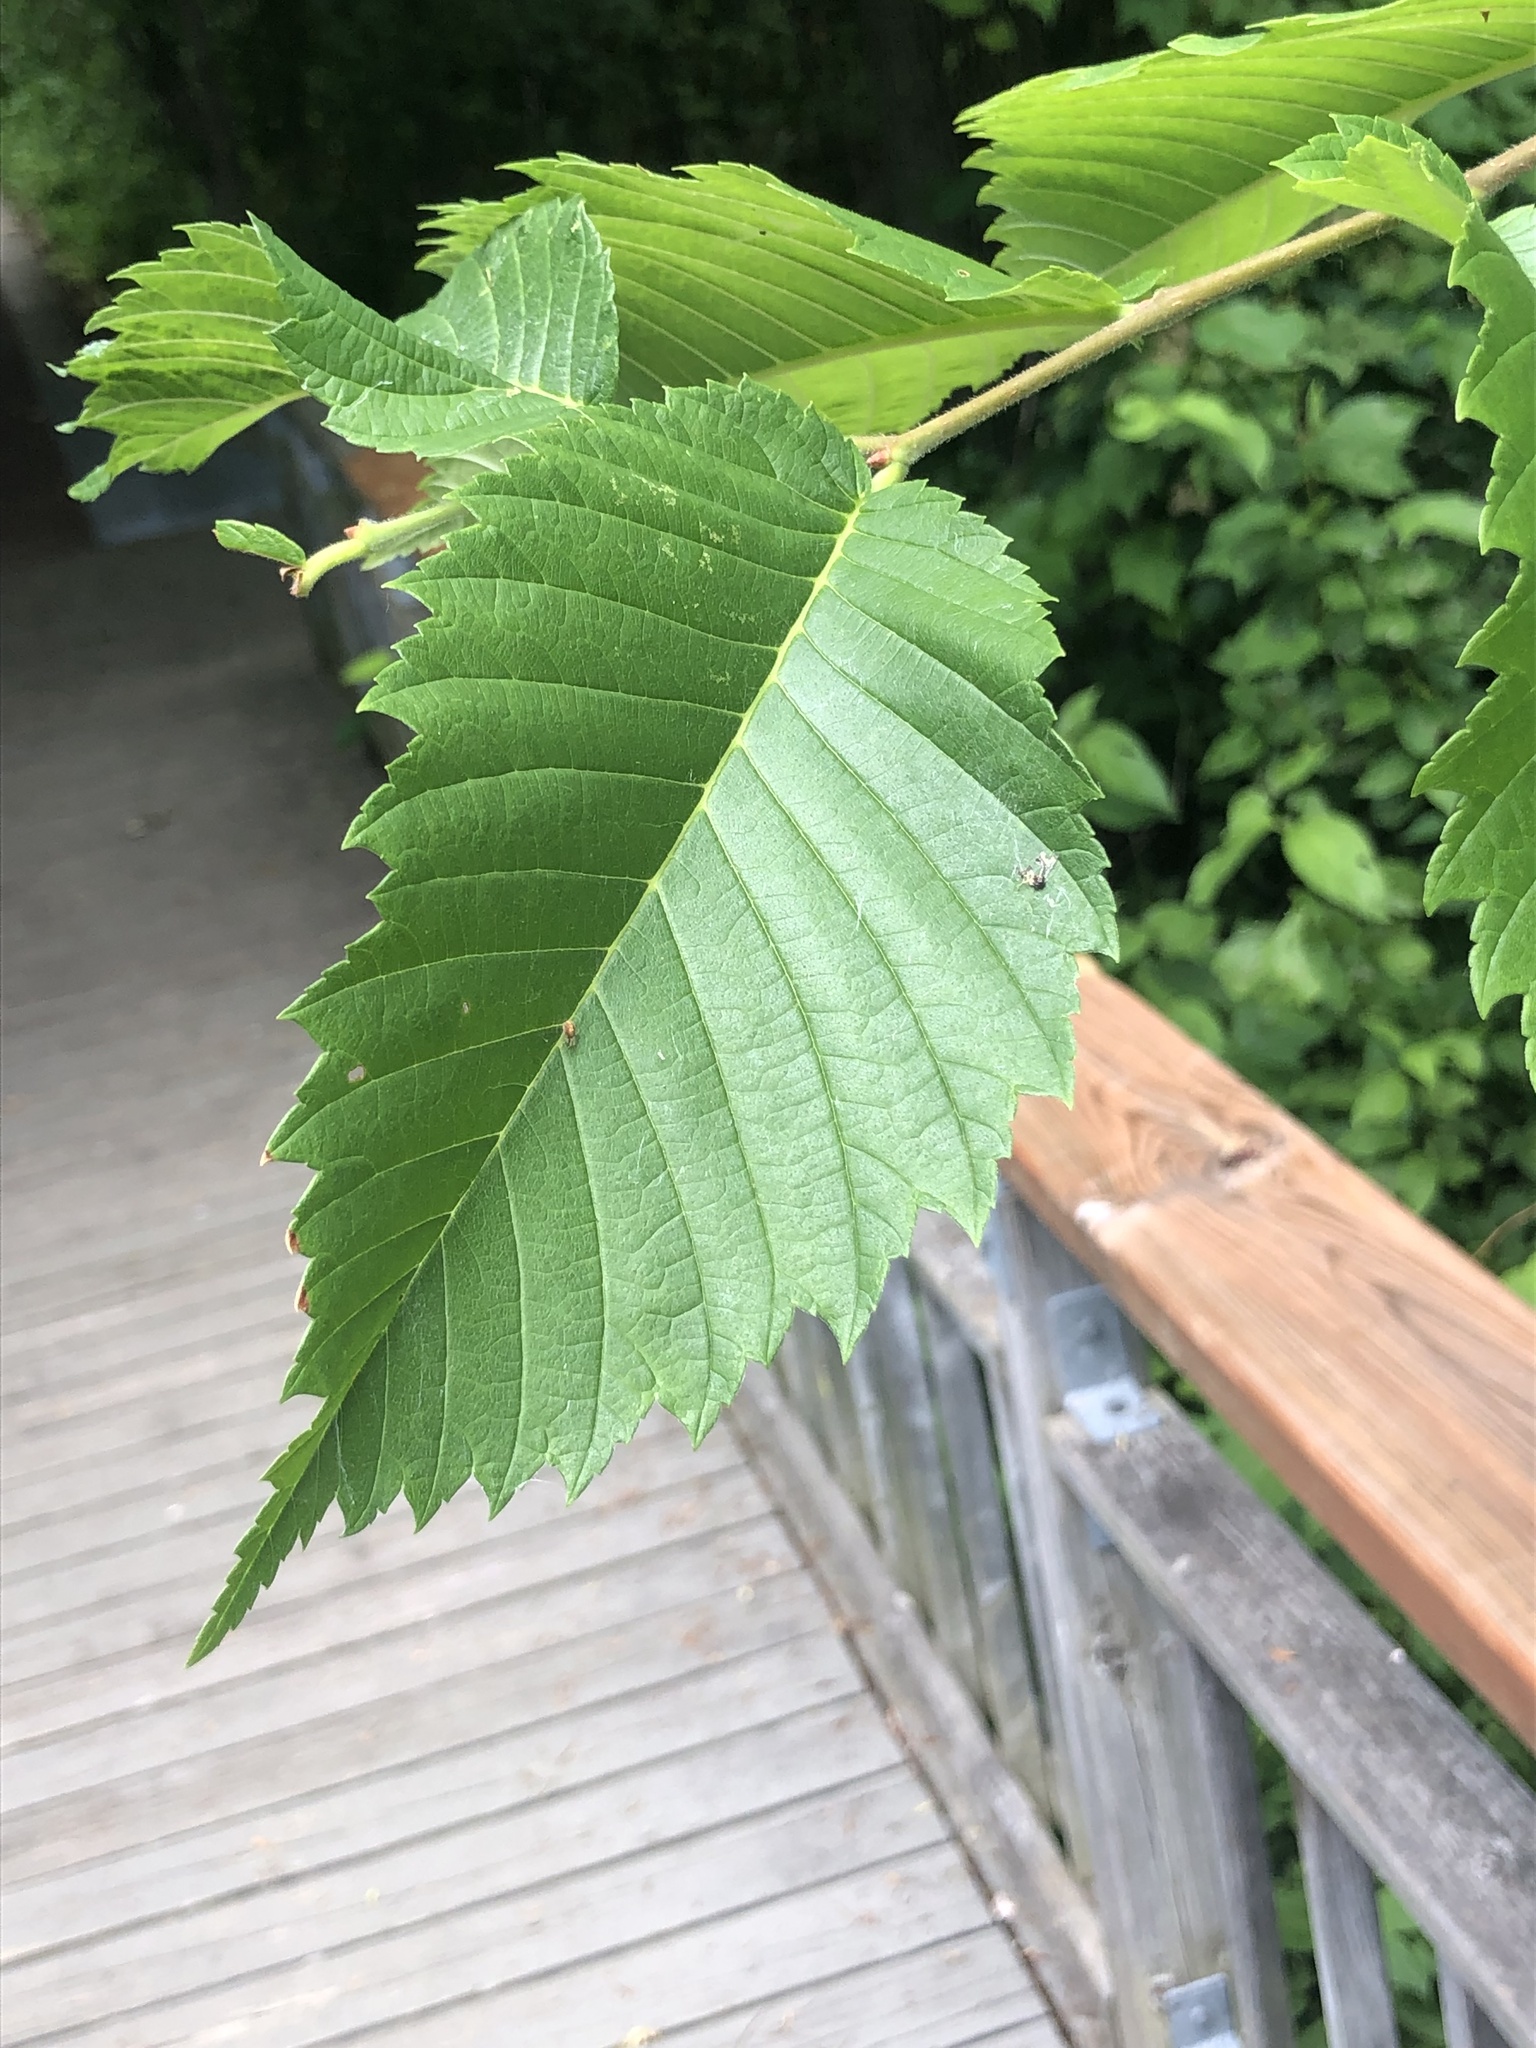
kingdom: Plantae
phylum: Tracheophyta
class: Magnoliopsida
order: Rosales
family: Ulmaceae
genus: Ulmus
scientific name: Ulmus americana
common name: American elm
